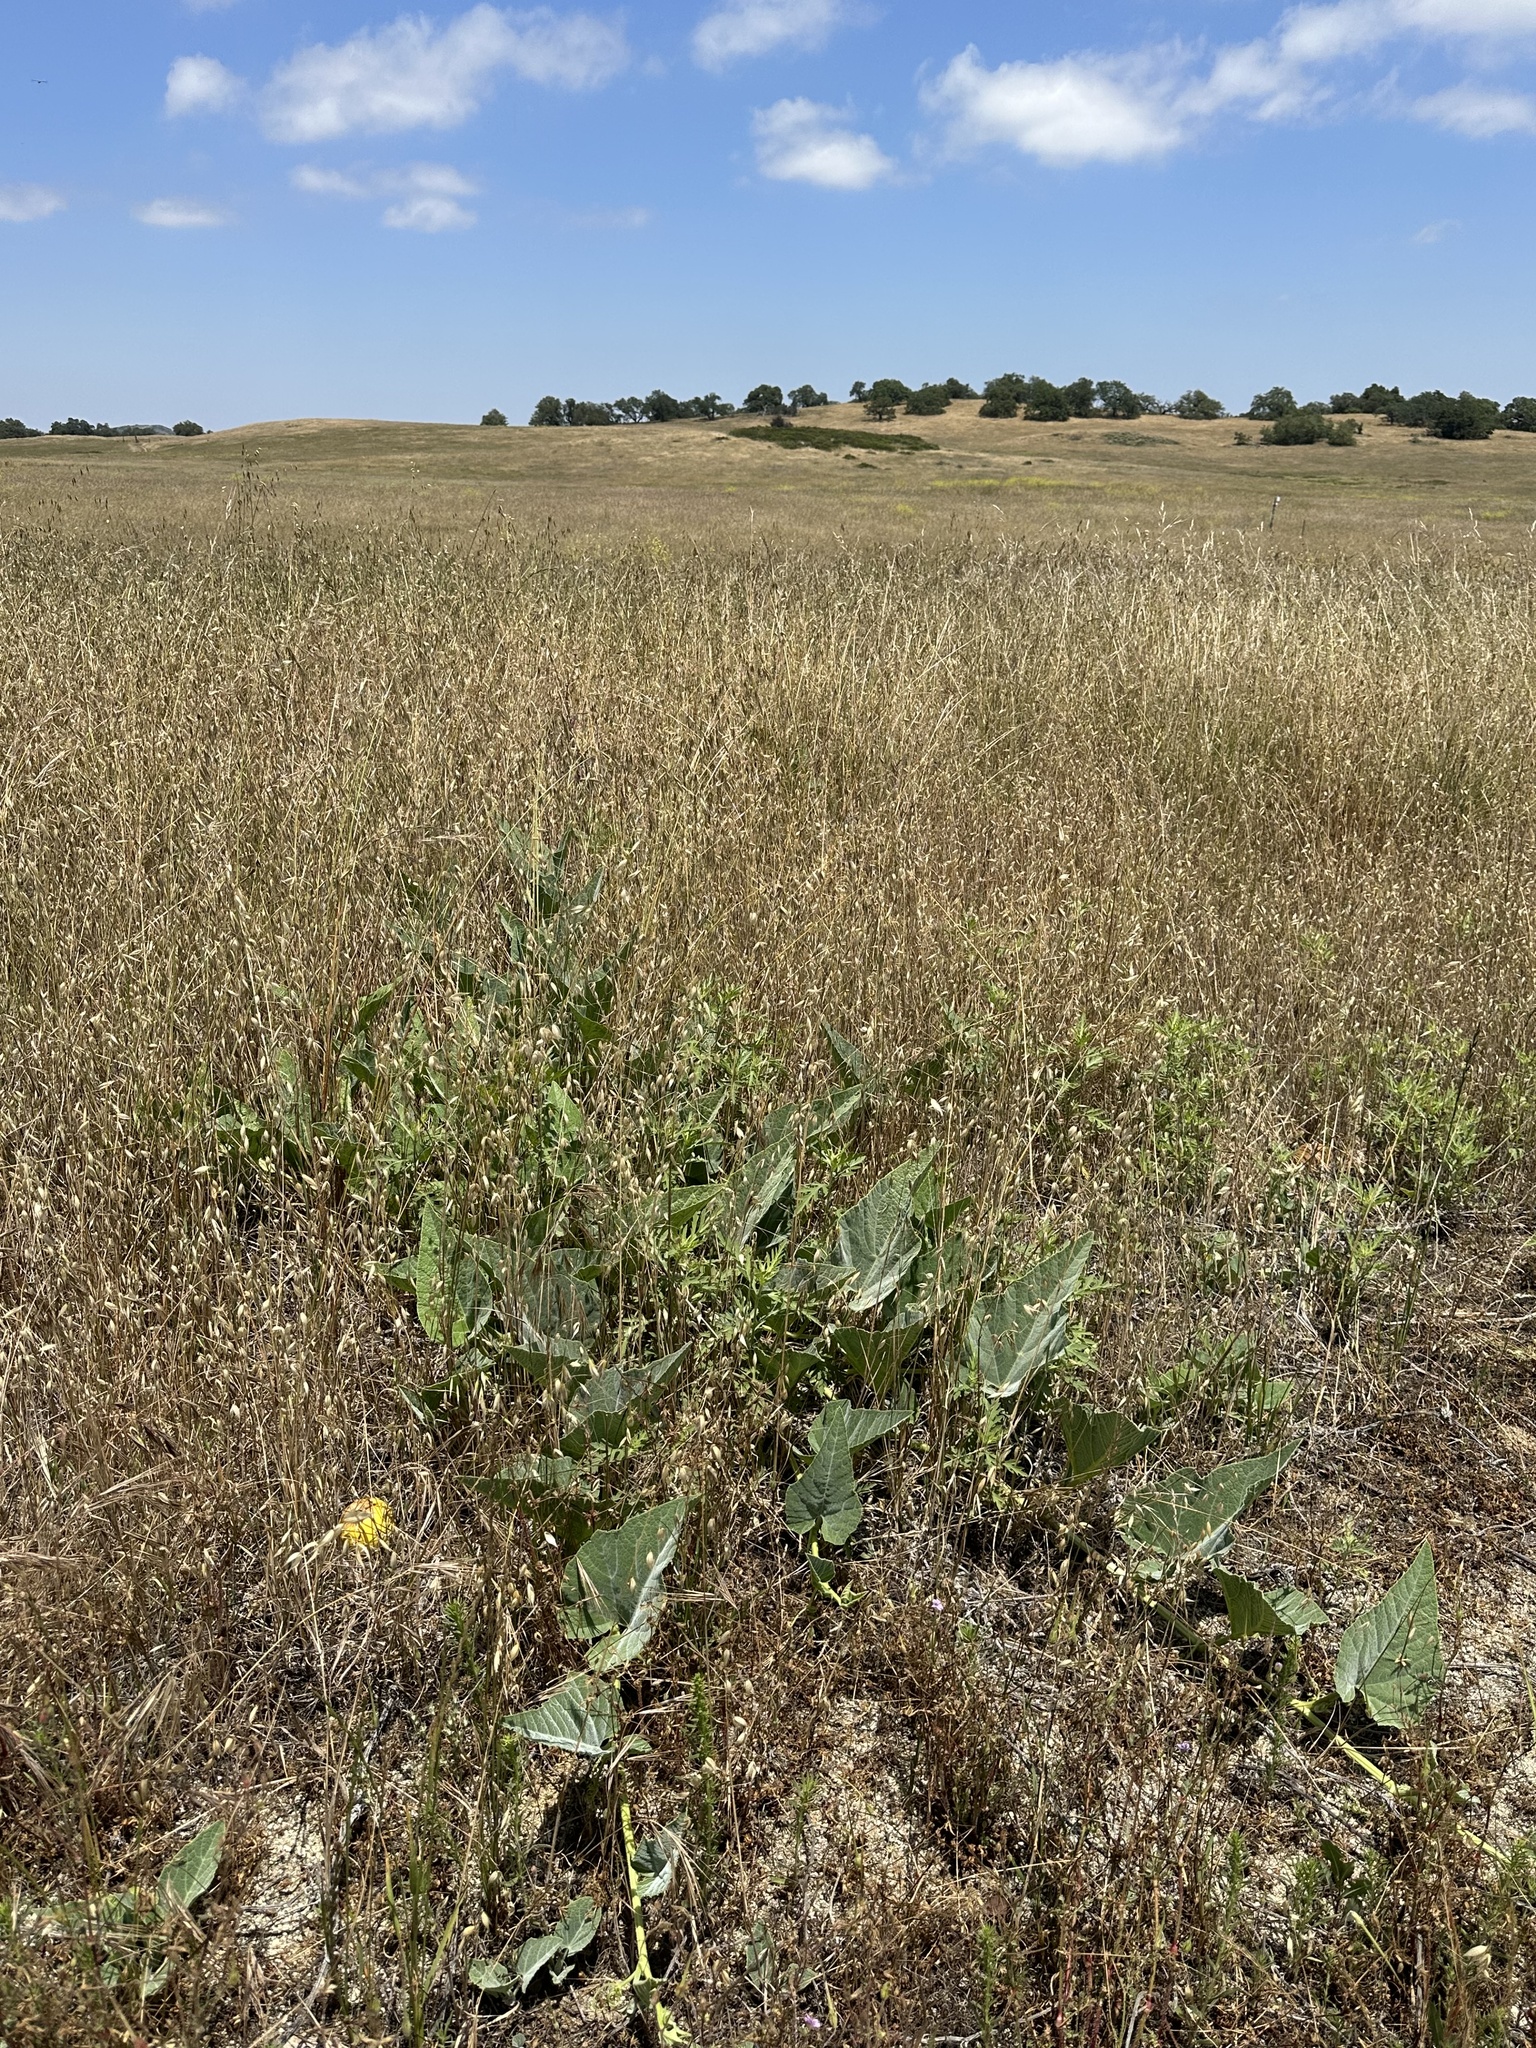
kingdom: Plantae
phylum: Tracheophyta
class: Magnoliopsida
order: Cucurbitales
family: Cucurbitaceae
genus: Cucurbita
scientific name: Cucurbita foetidissima
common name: Buffalo gourd
